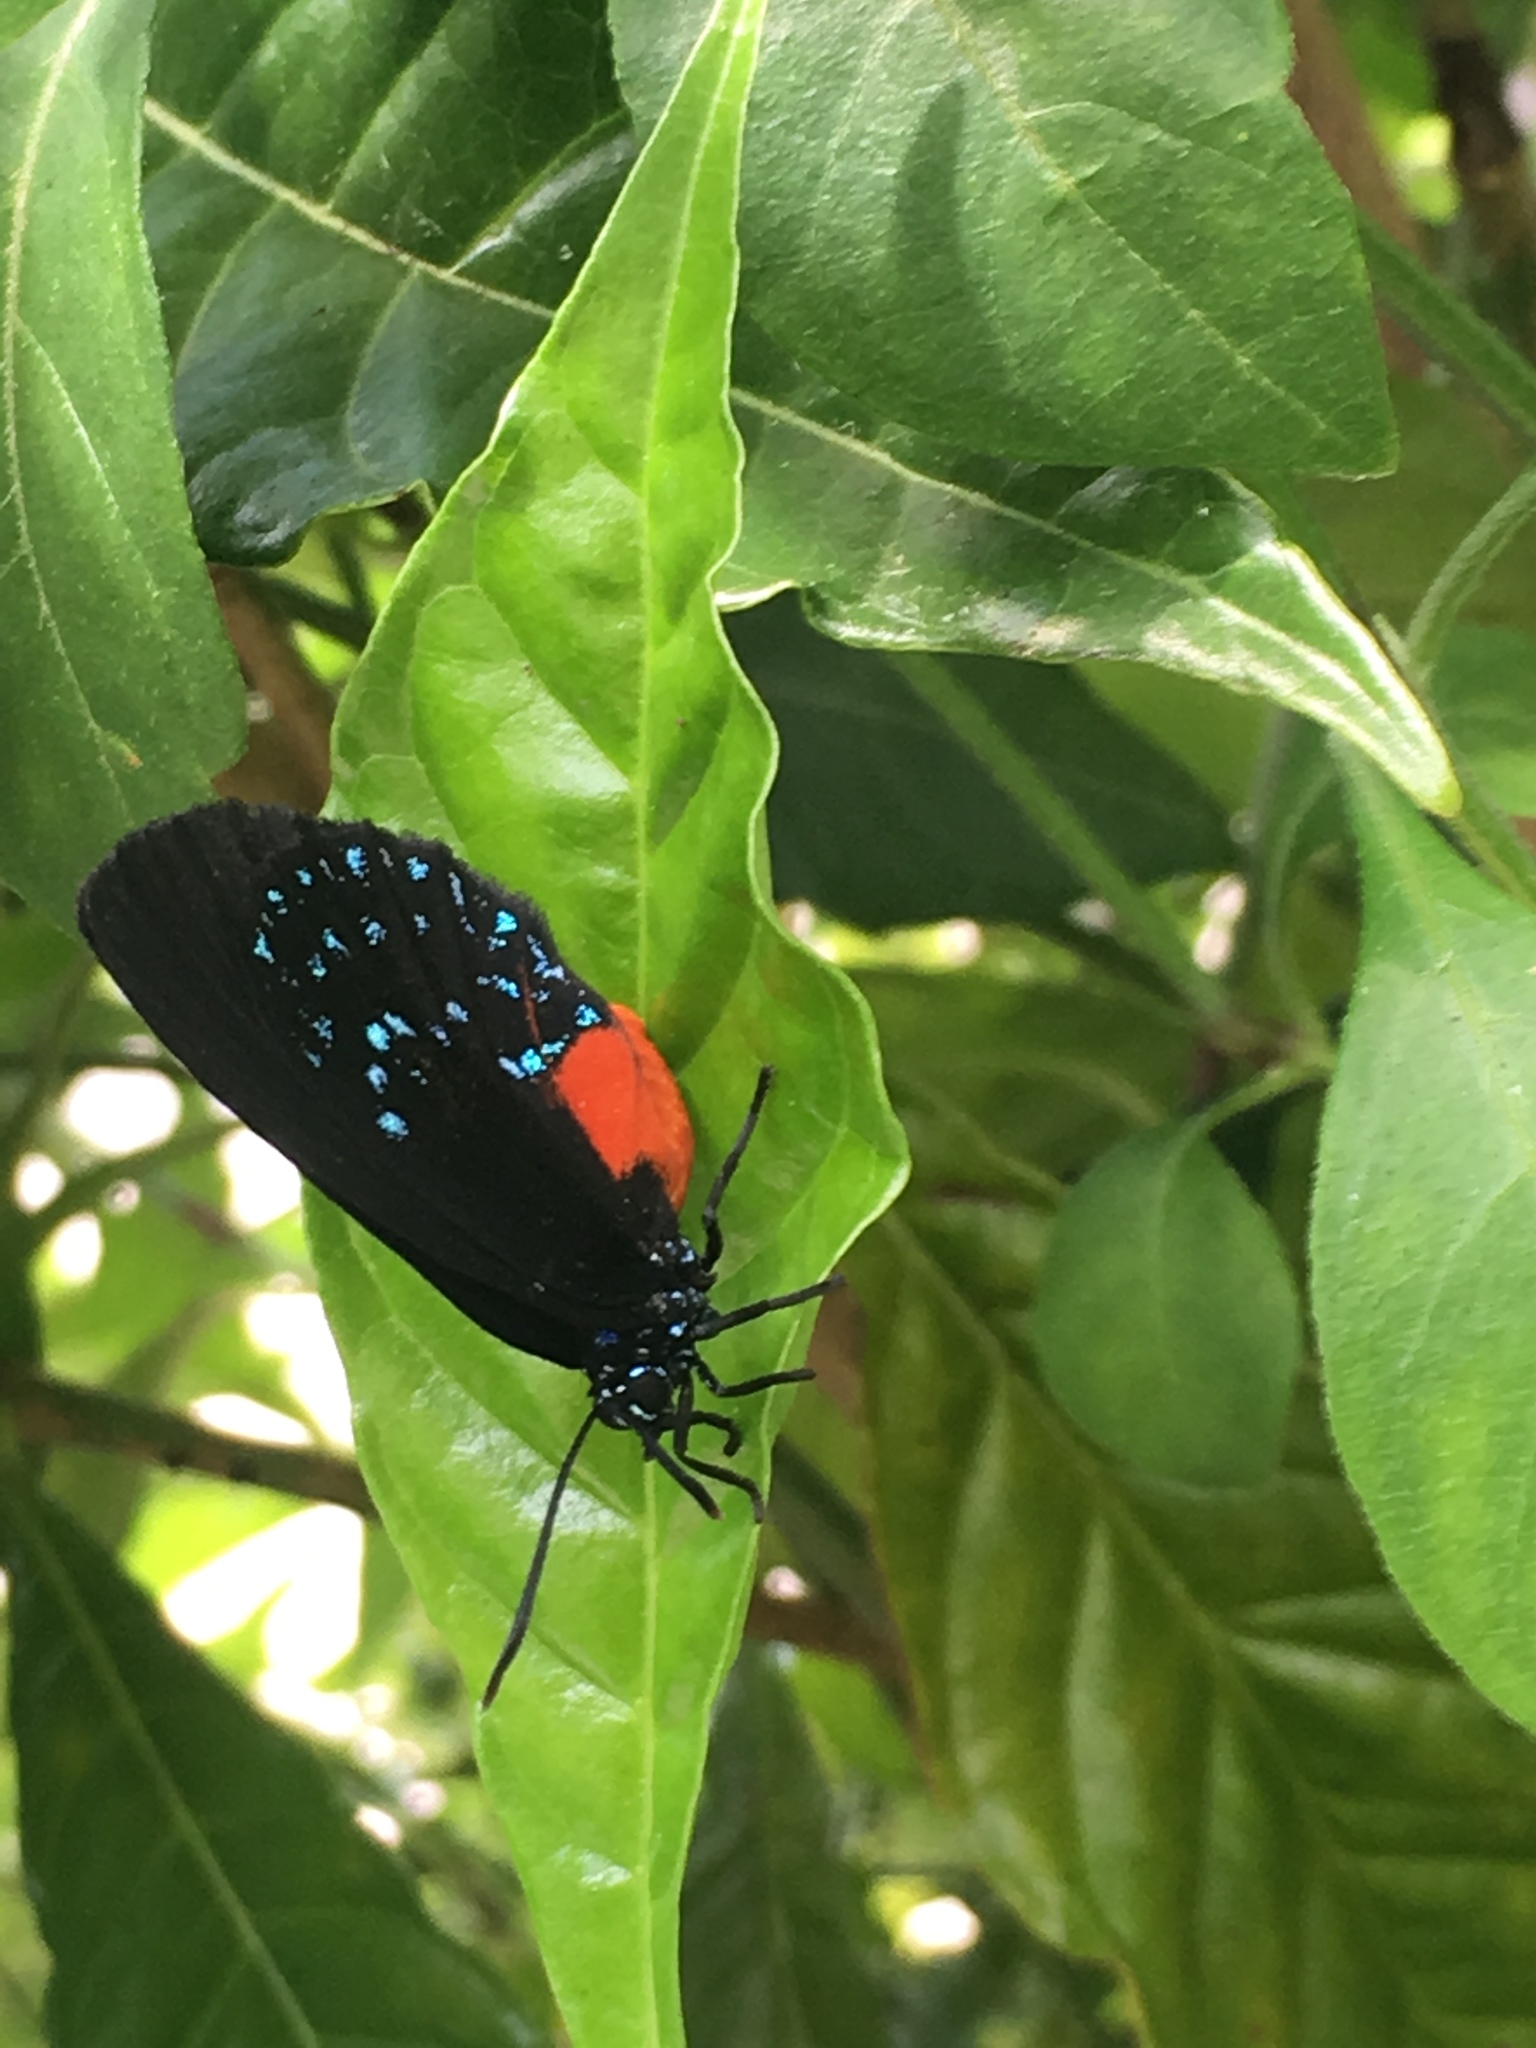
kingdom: Animalia
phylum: Arthropoda
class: Insecta
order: Lepidoptera
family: Lycaenidae
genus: Eumaeus
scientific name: Eumaeus atala
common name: Atala
